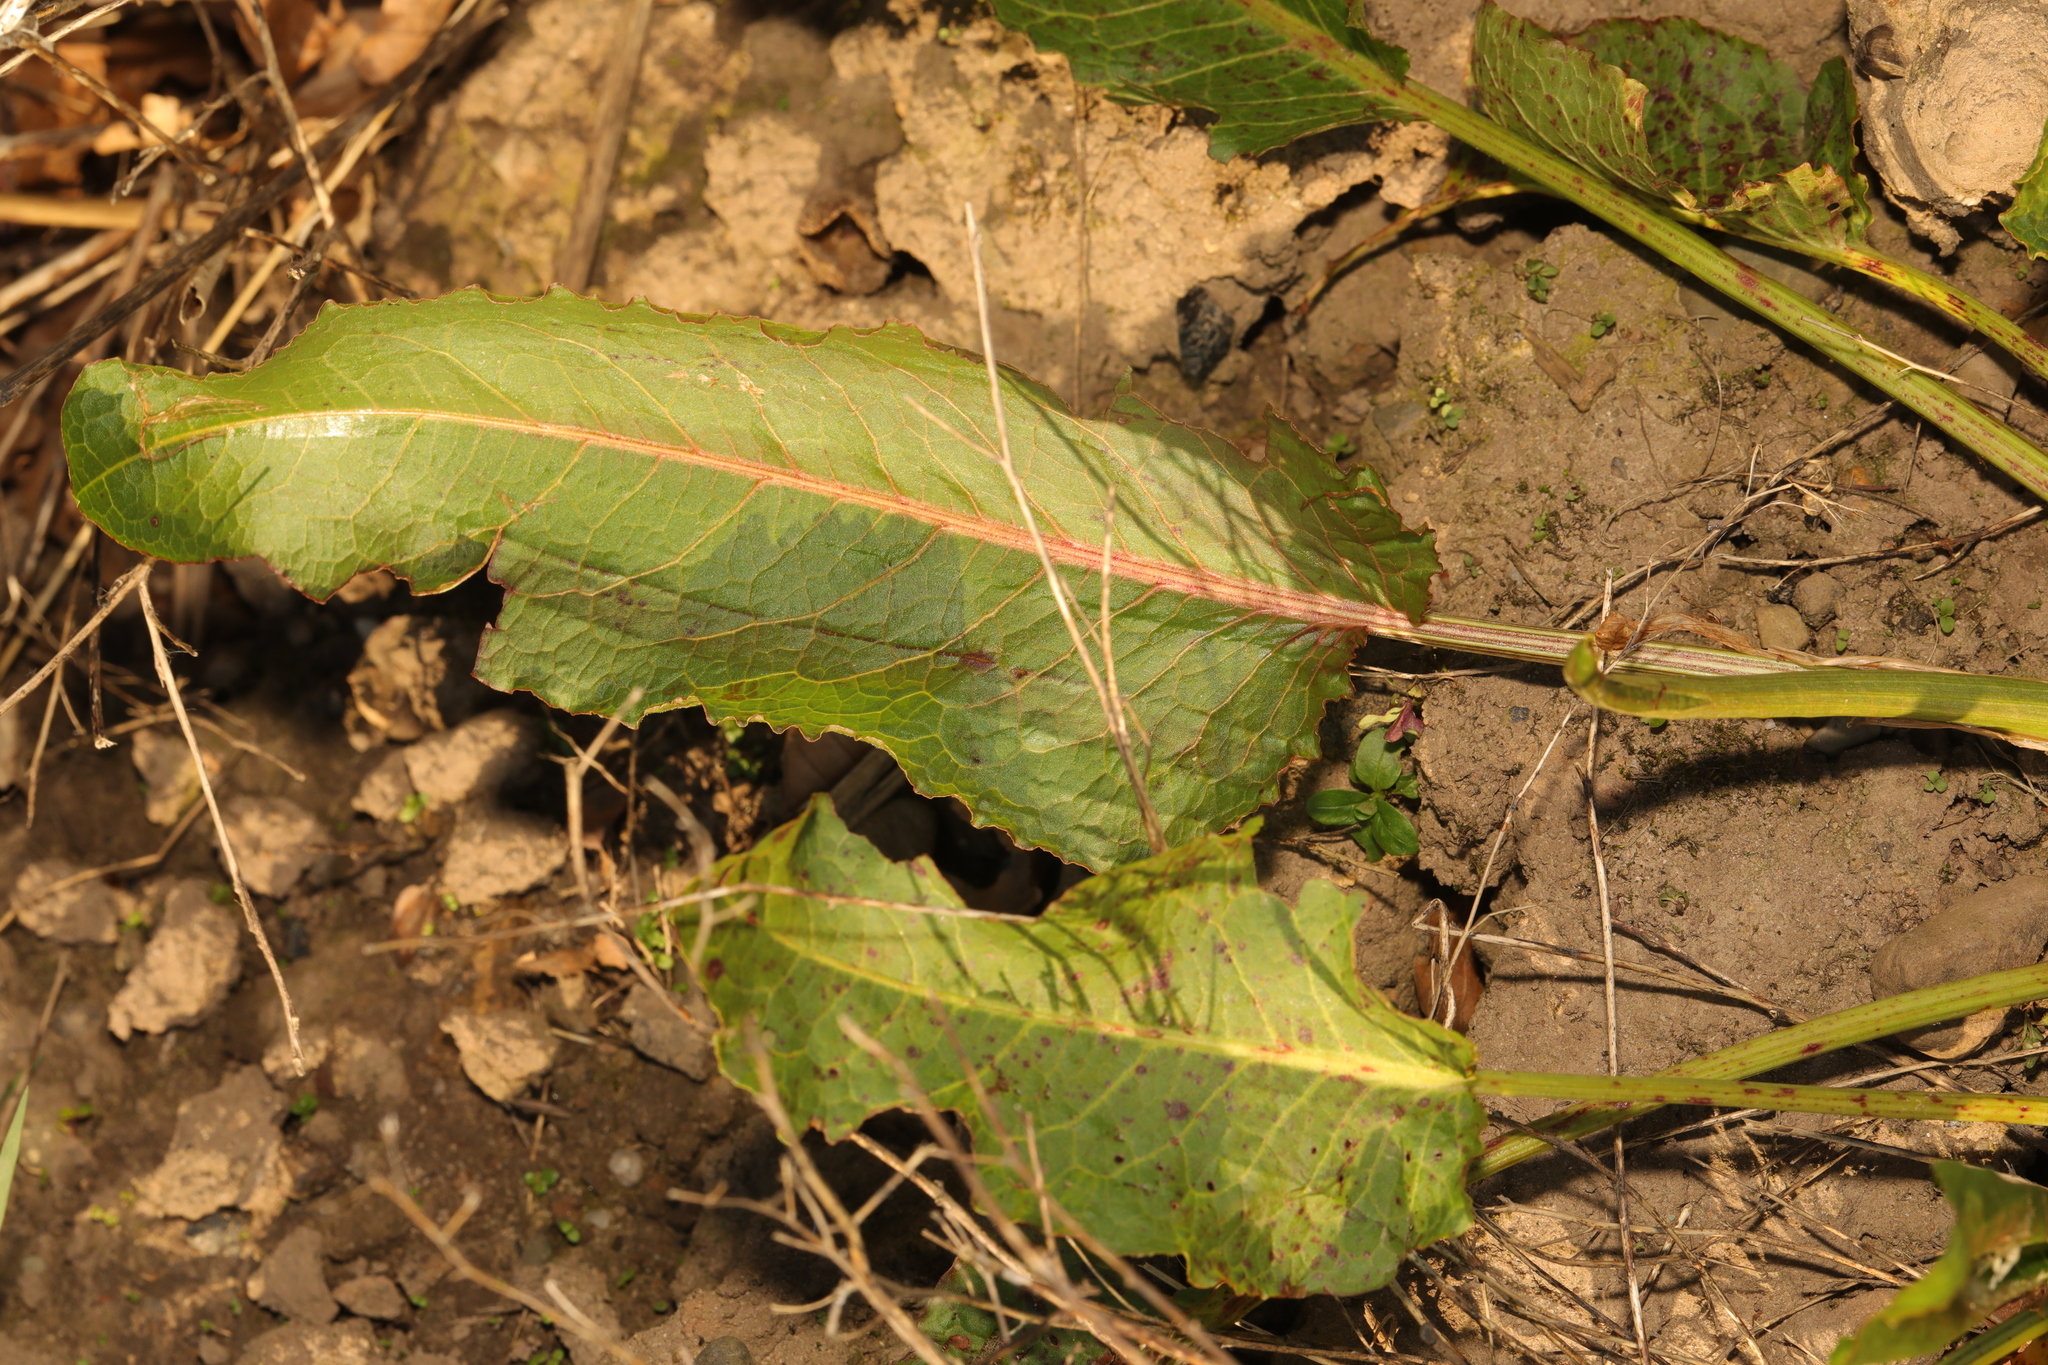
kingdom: Plantae
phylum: Tracheophyta
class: Magnoliopsida
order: Caryophyllales
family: Polygonaceae
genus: Rumex
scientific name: Rumex obtusifolius
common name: Bitter dock
